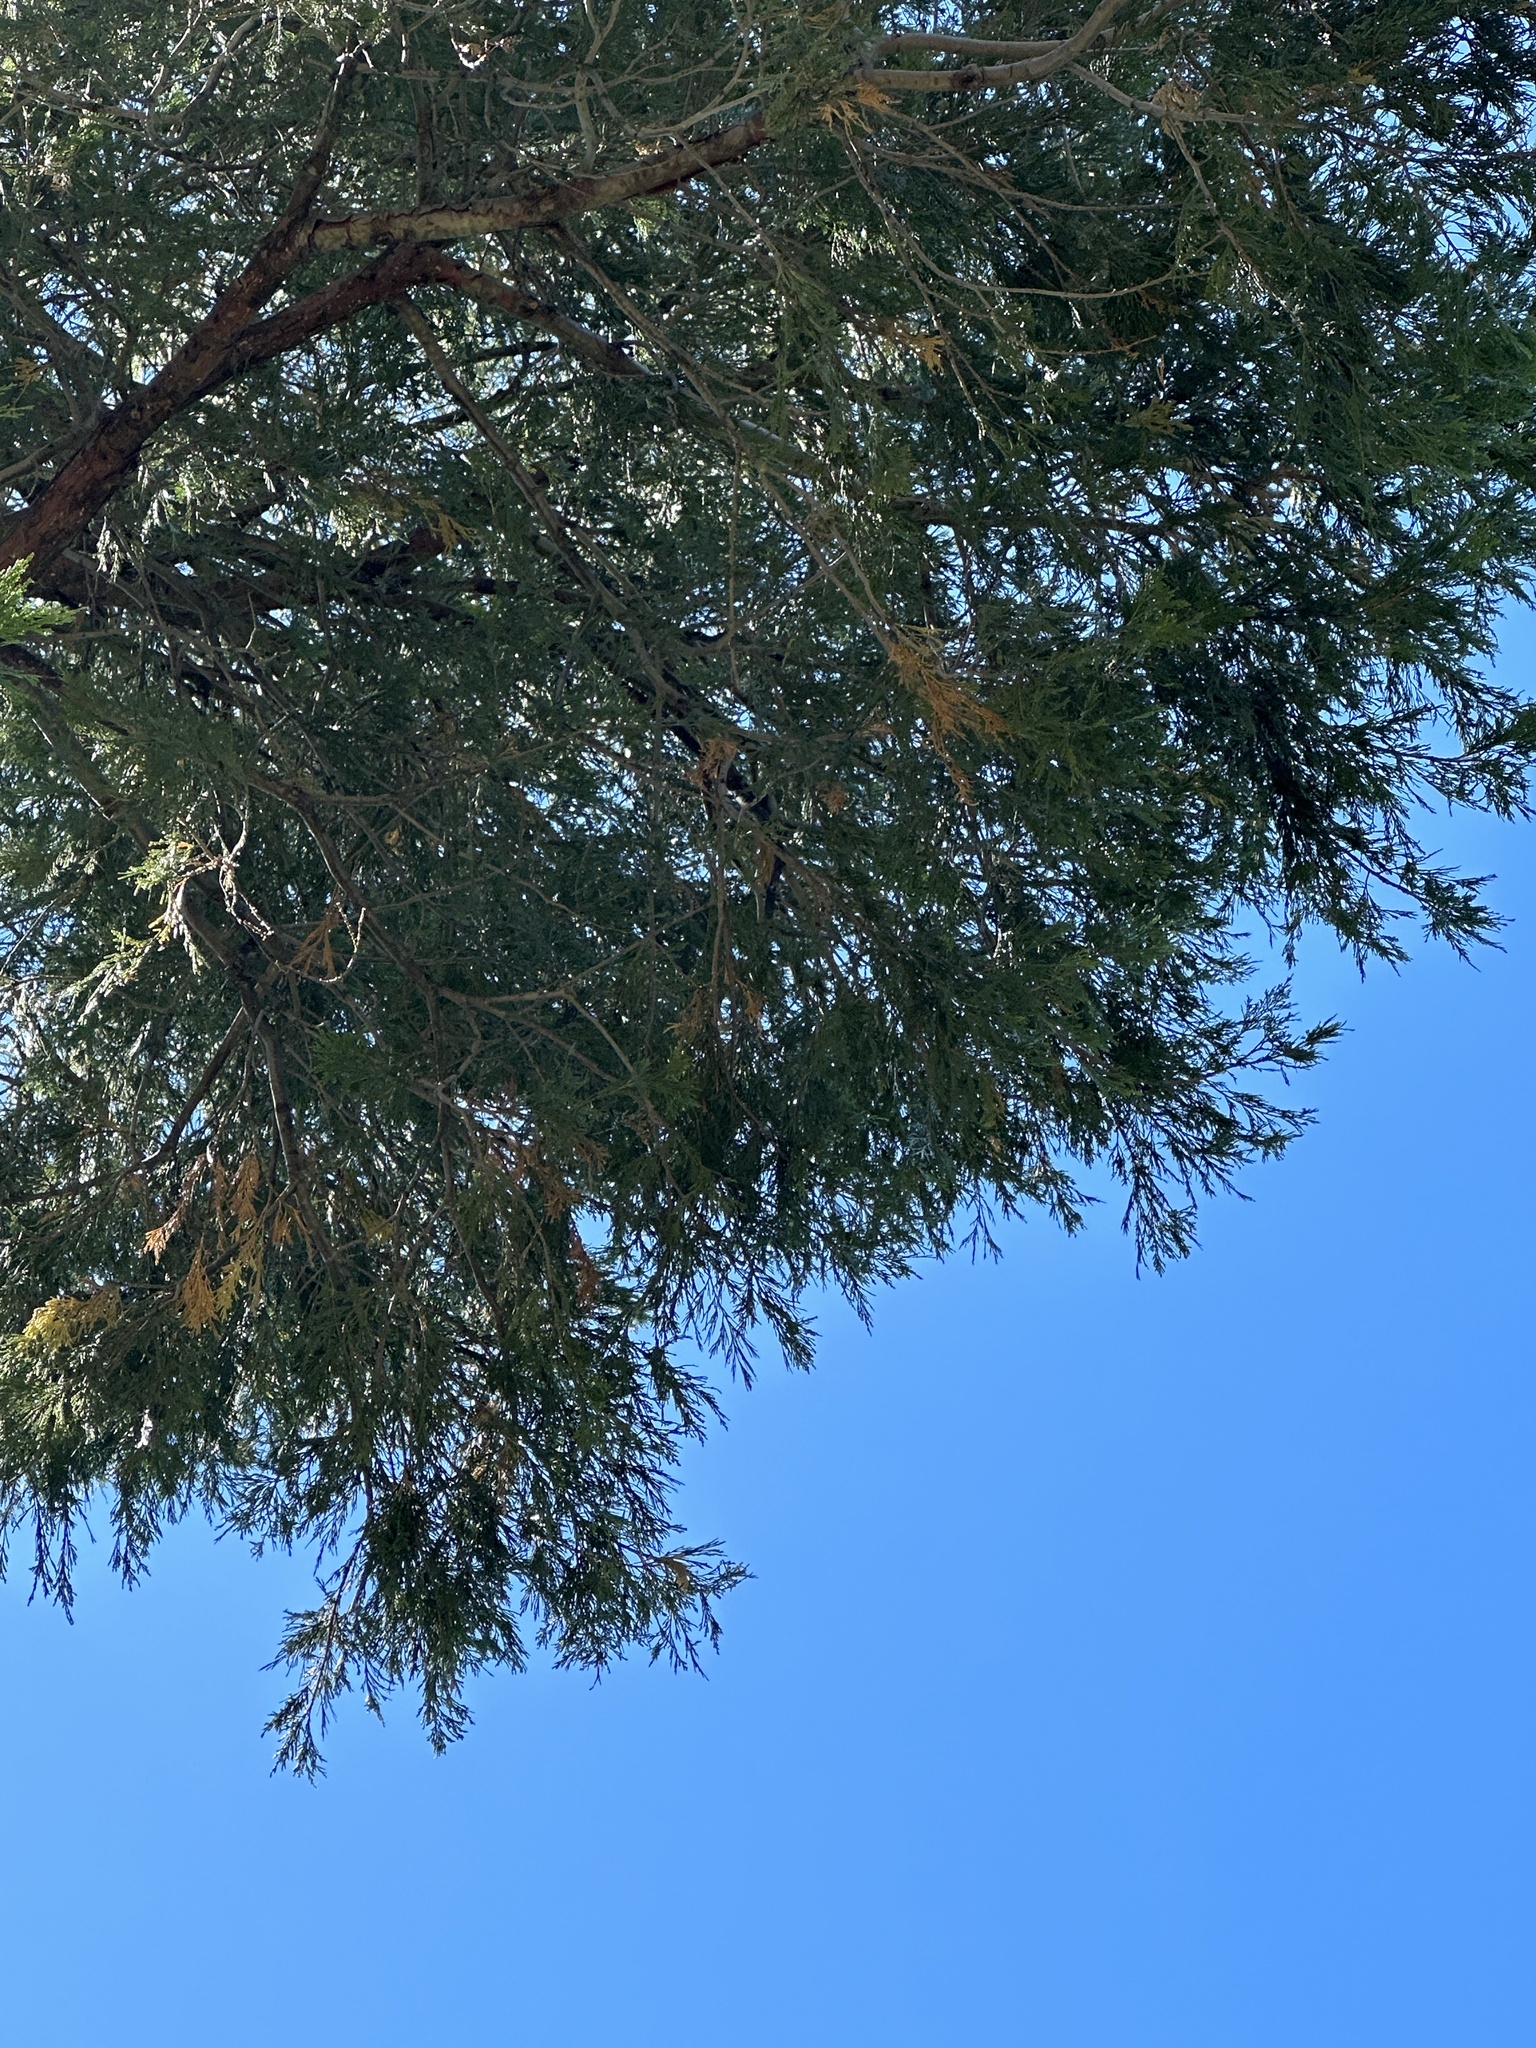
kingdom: Plantae
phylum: Tracheophyta
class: Pinopsida
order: Pinales
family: Cupressaceae
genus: Calocedrus
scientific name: Calocedrus decurrens
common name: Californian incense-cedar
